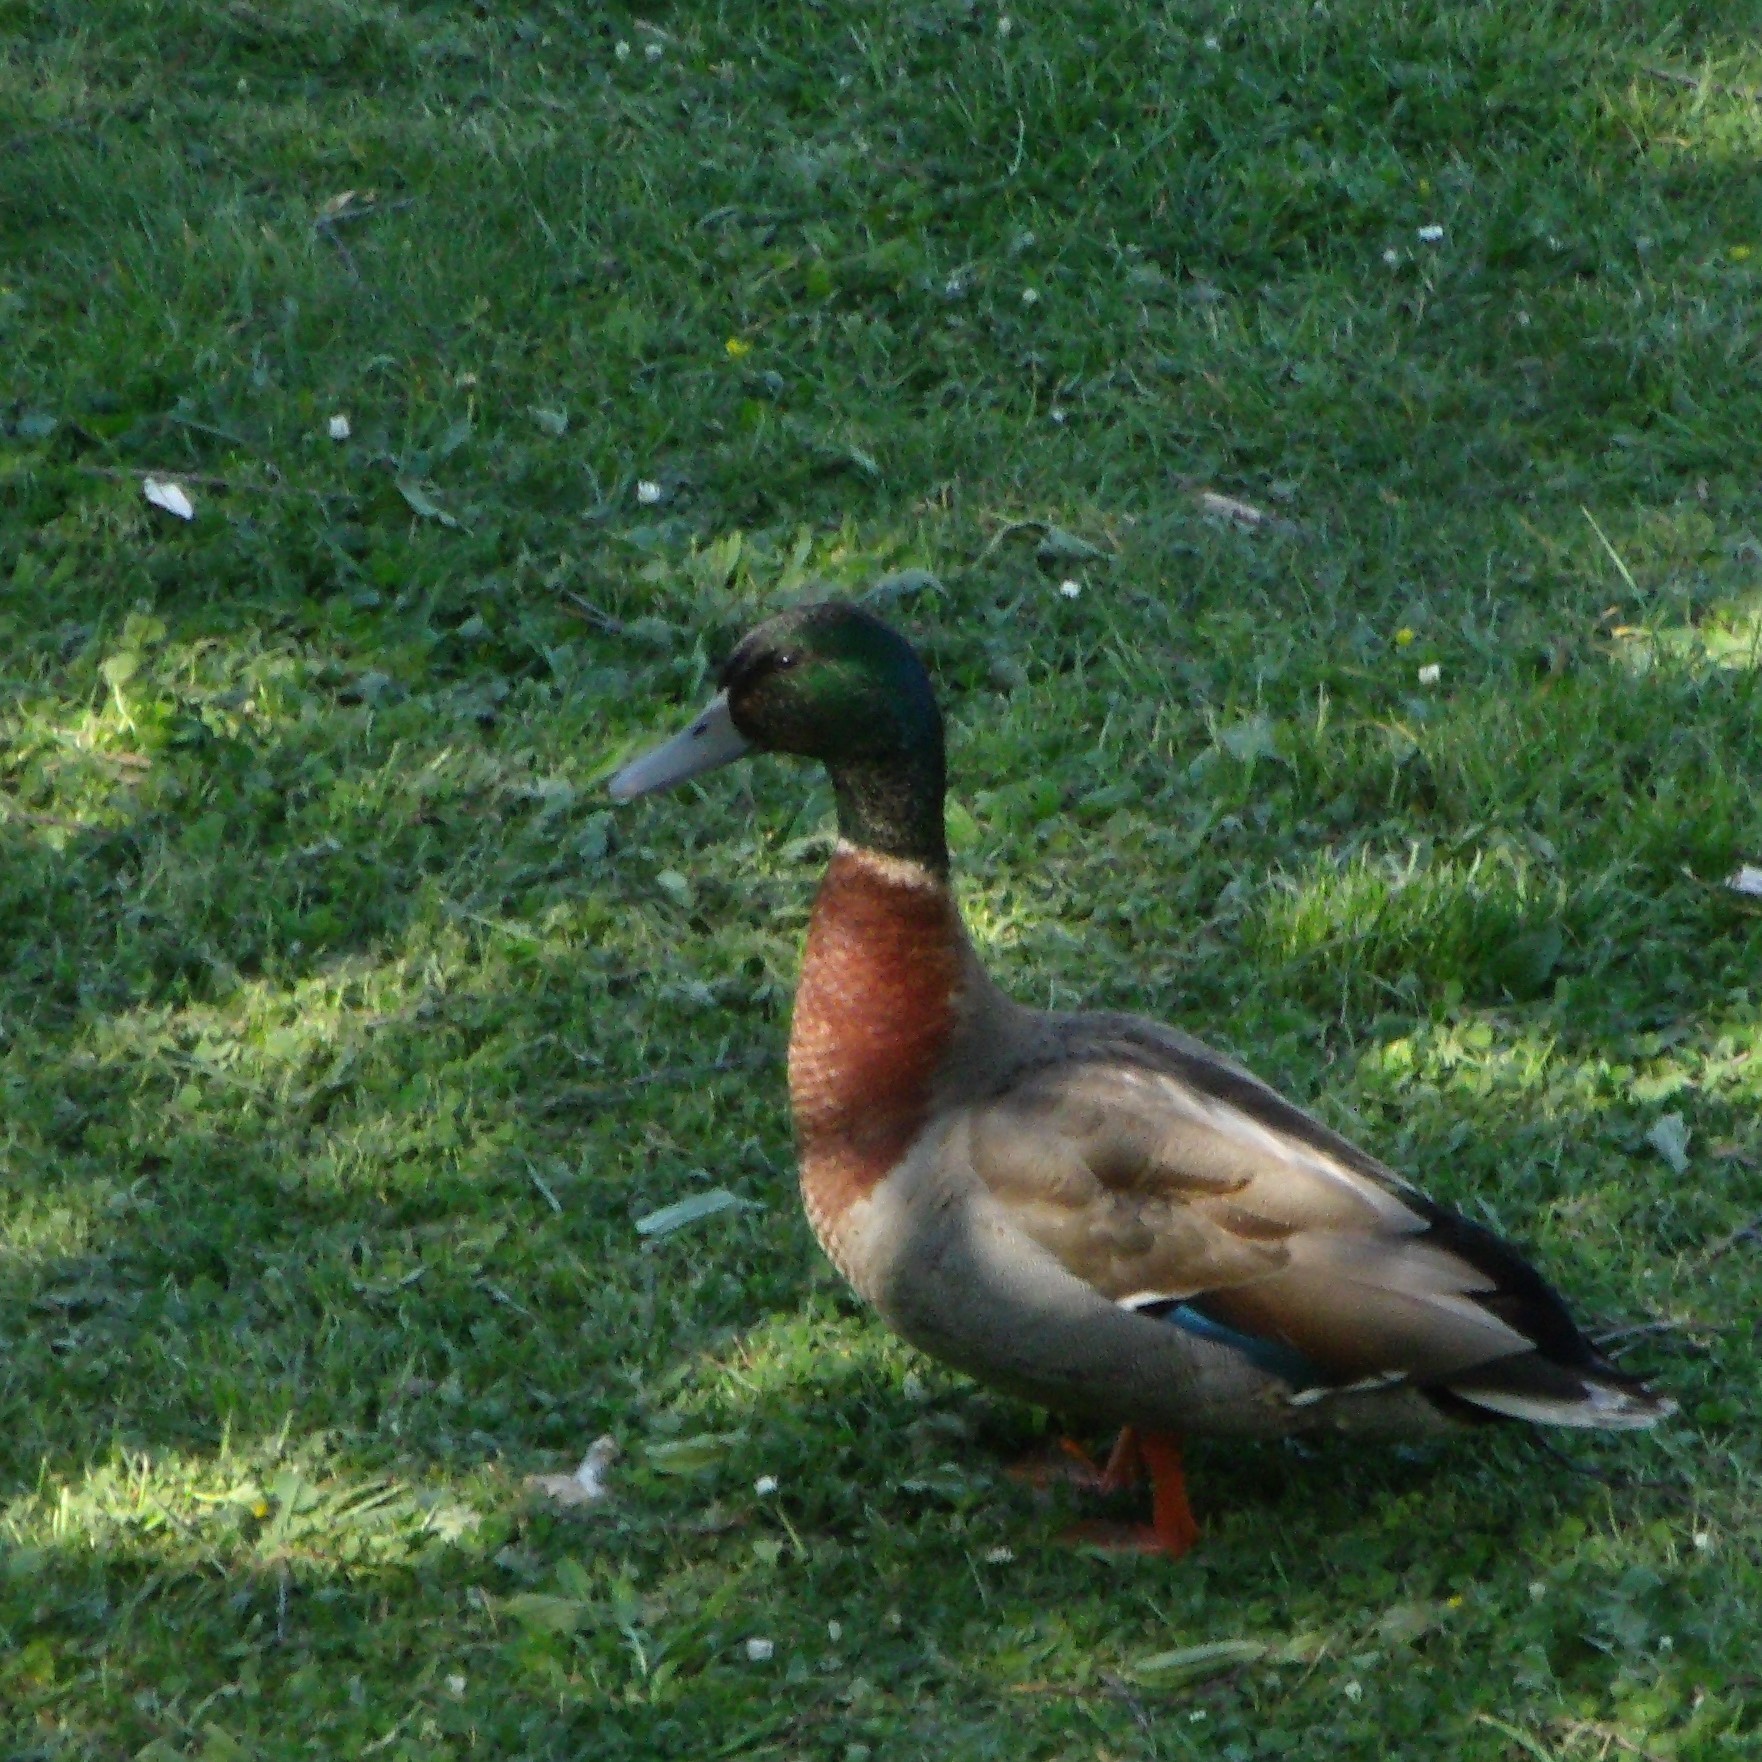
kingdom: Animalia
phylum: Chordata
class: Aves
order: Anseriformes
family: Anatidae
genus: Anas
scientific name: Anas platyrhynchos
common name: Mallard
